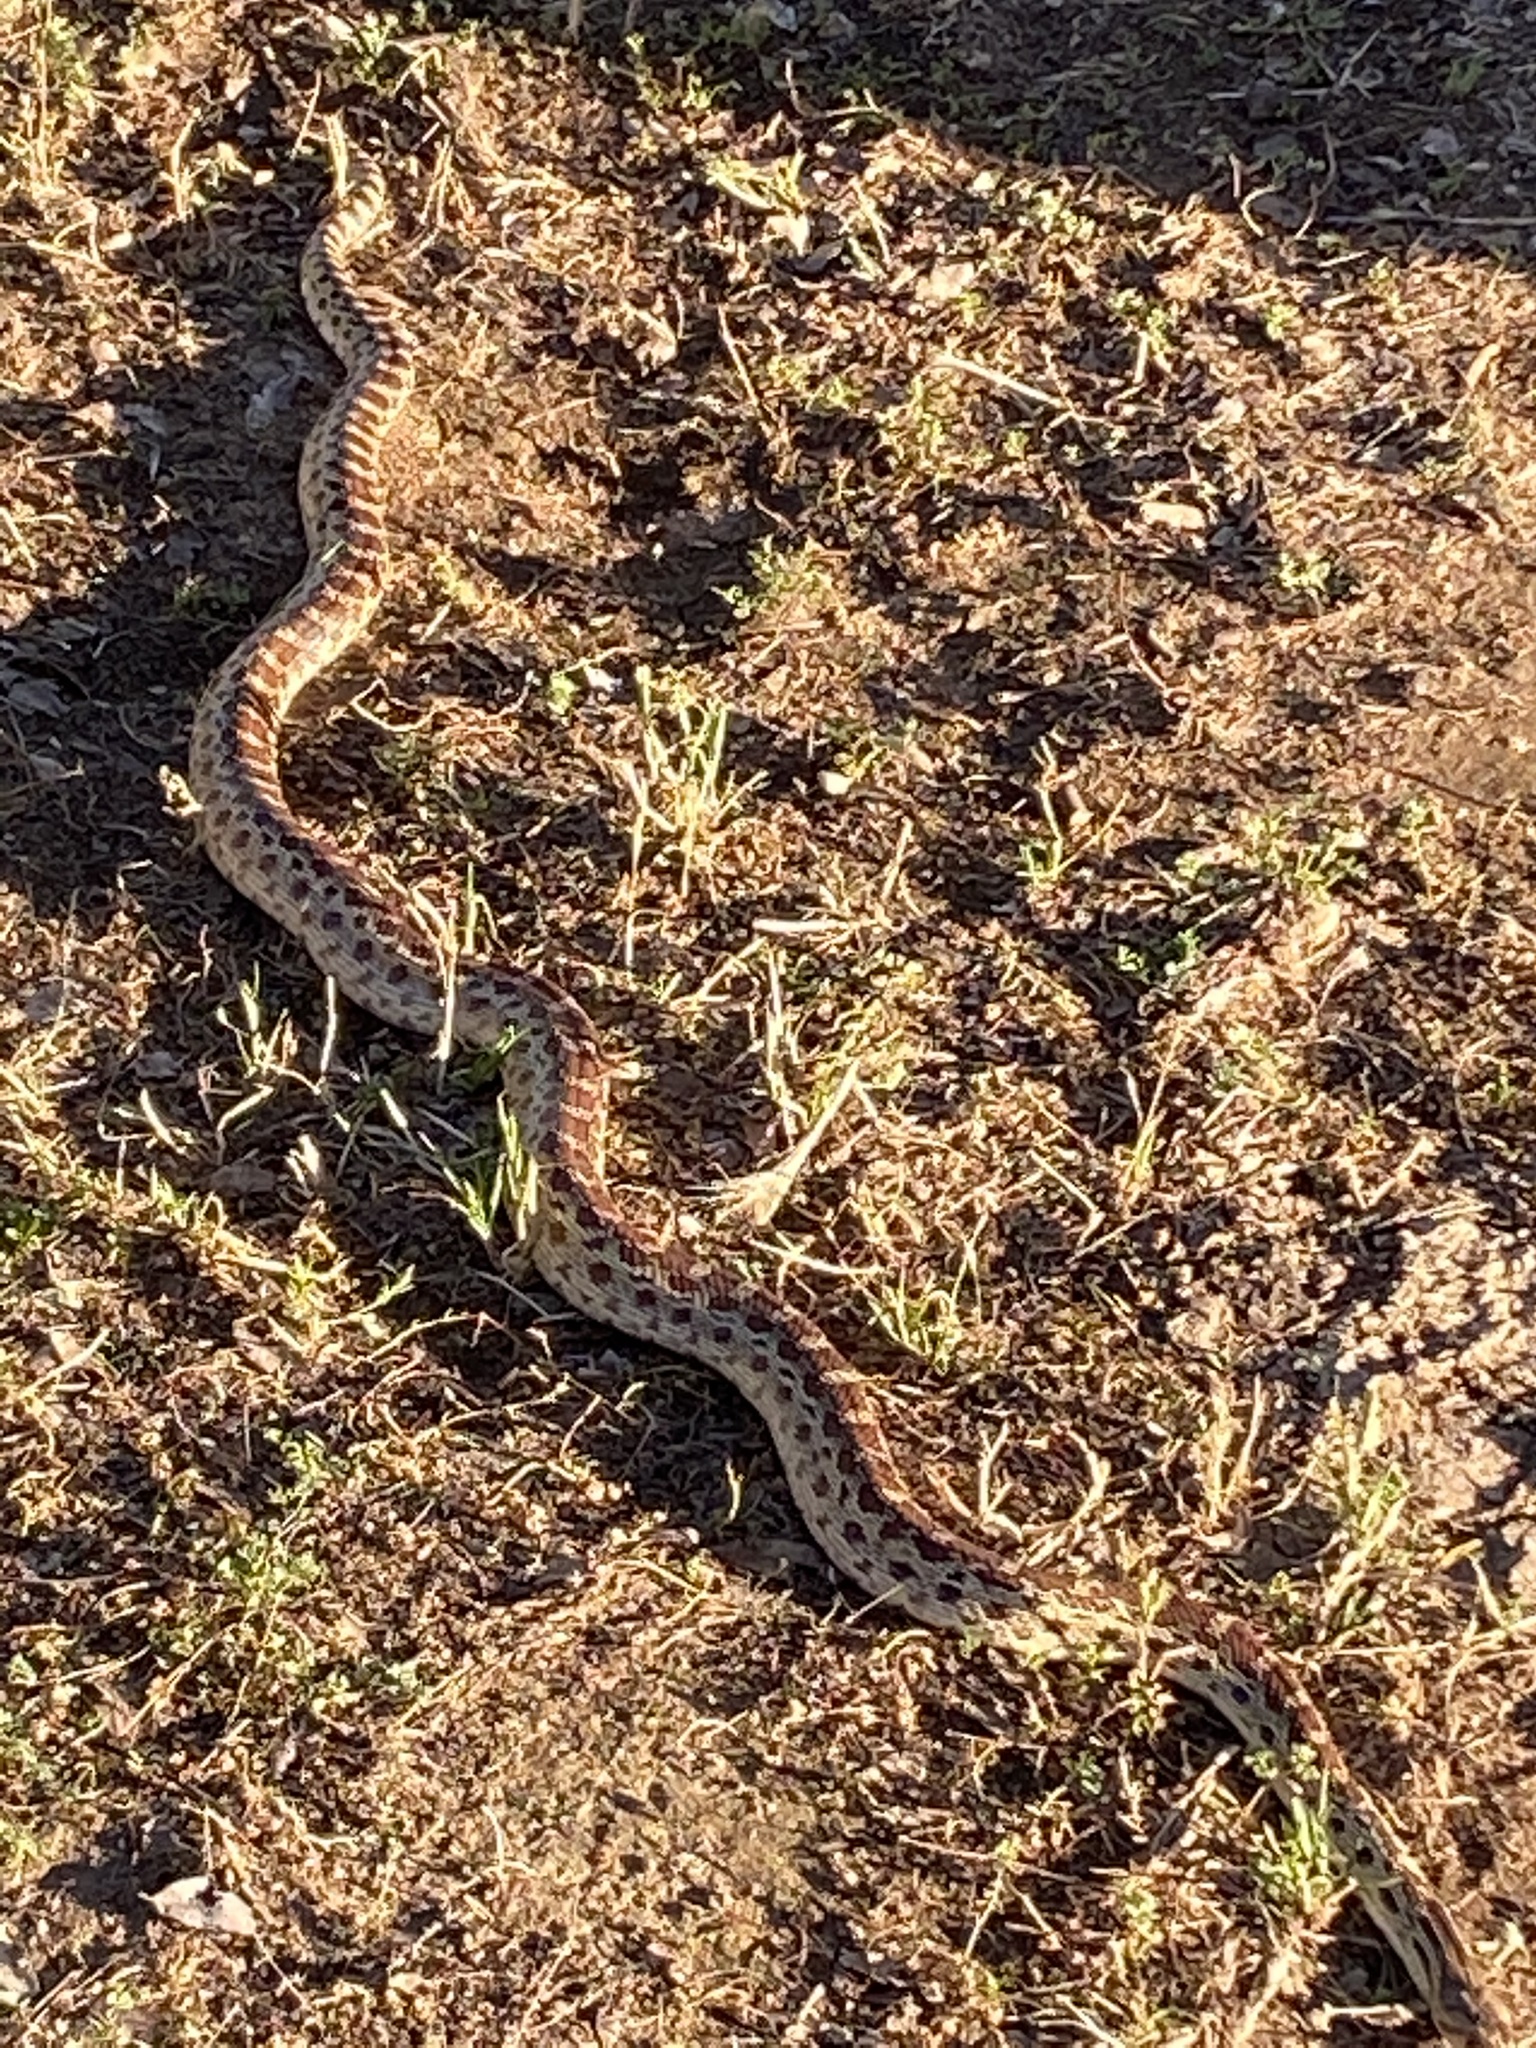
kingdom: Animalia
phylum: Chordata
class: Squamata
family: Colubridae
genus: Pituophis
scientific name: Pituophis catenifer
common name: Gopher snake
